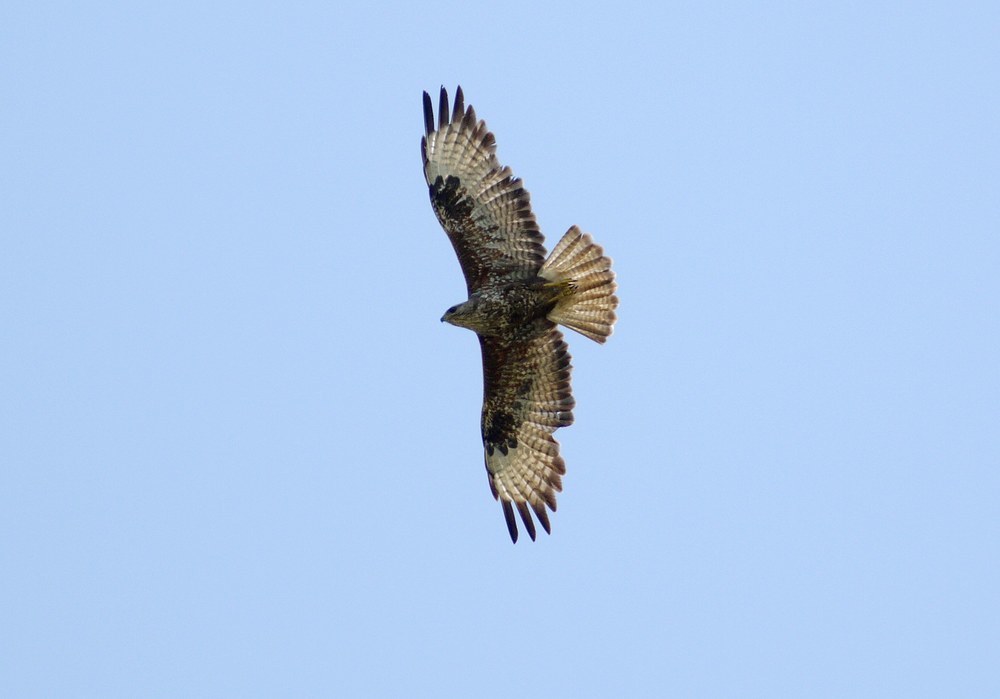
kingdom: Animalia
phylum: Chordata
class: Aves
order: Accipitriformes
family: Accipitridae
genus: Buteo
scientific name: Buteo buteo
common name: Common buzzard
